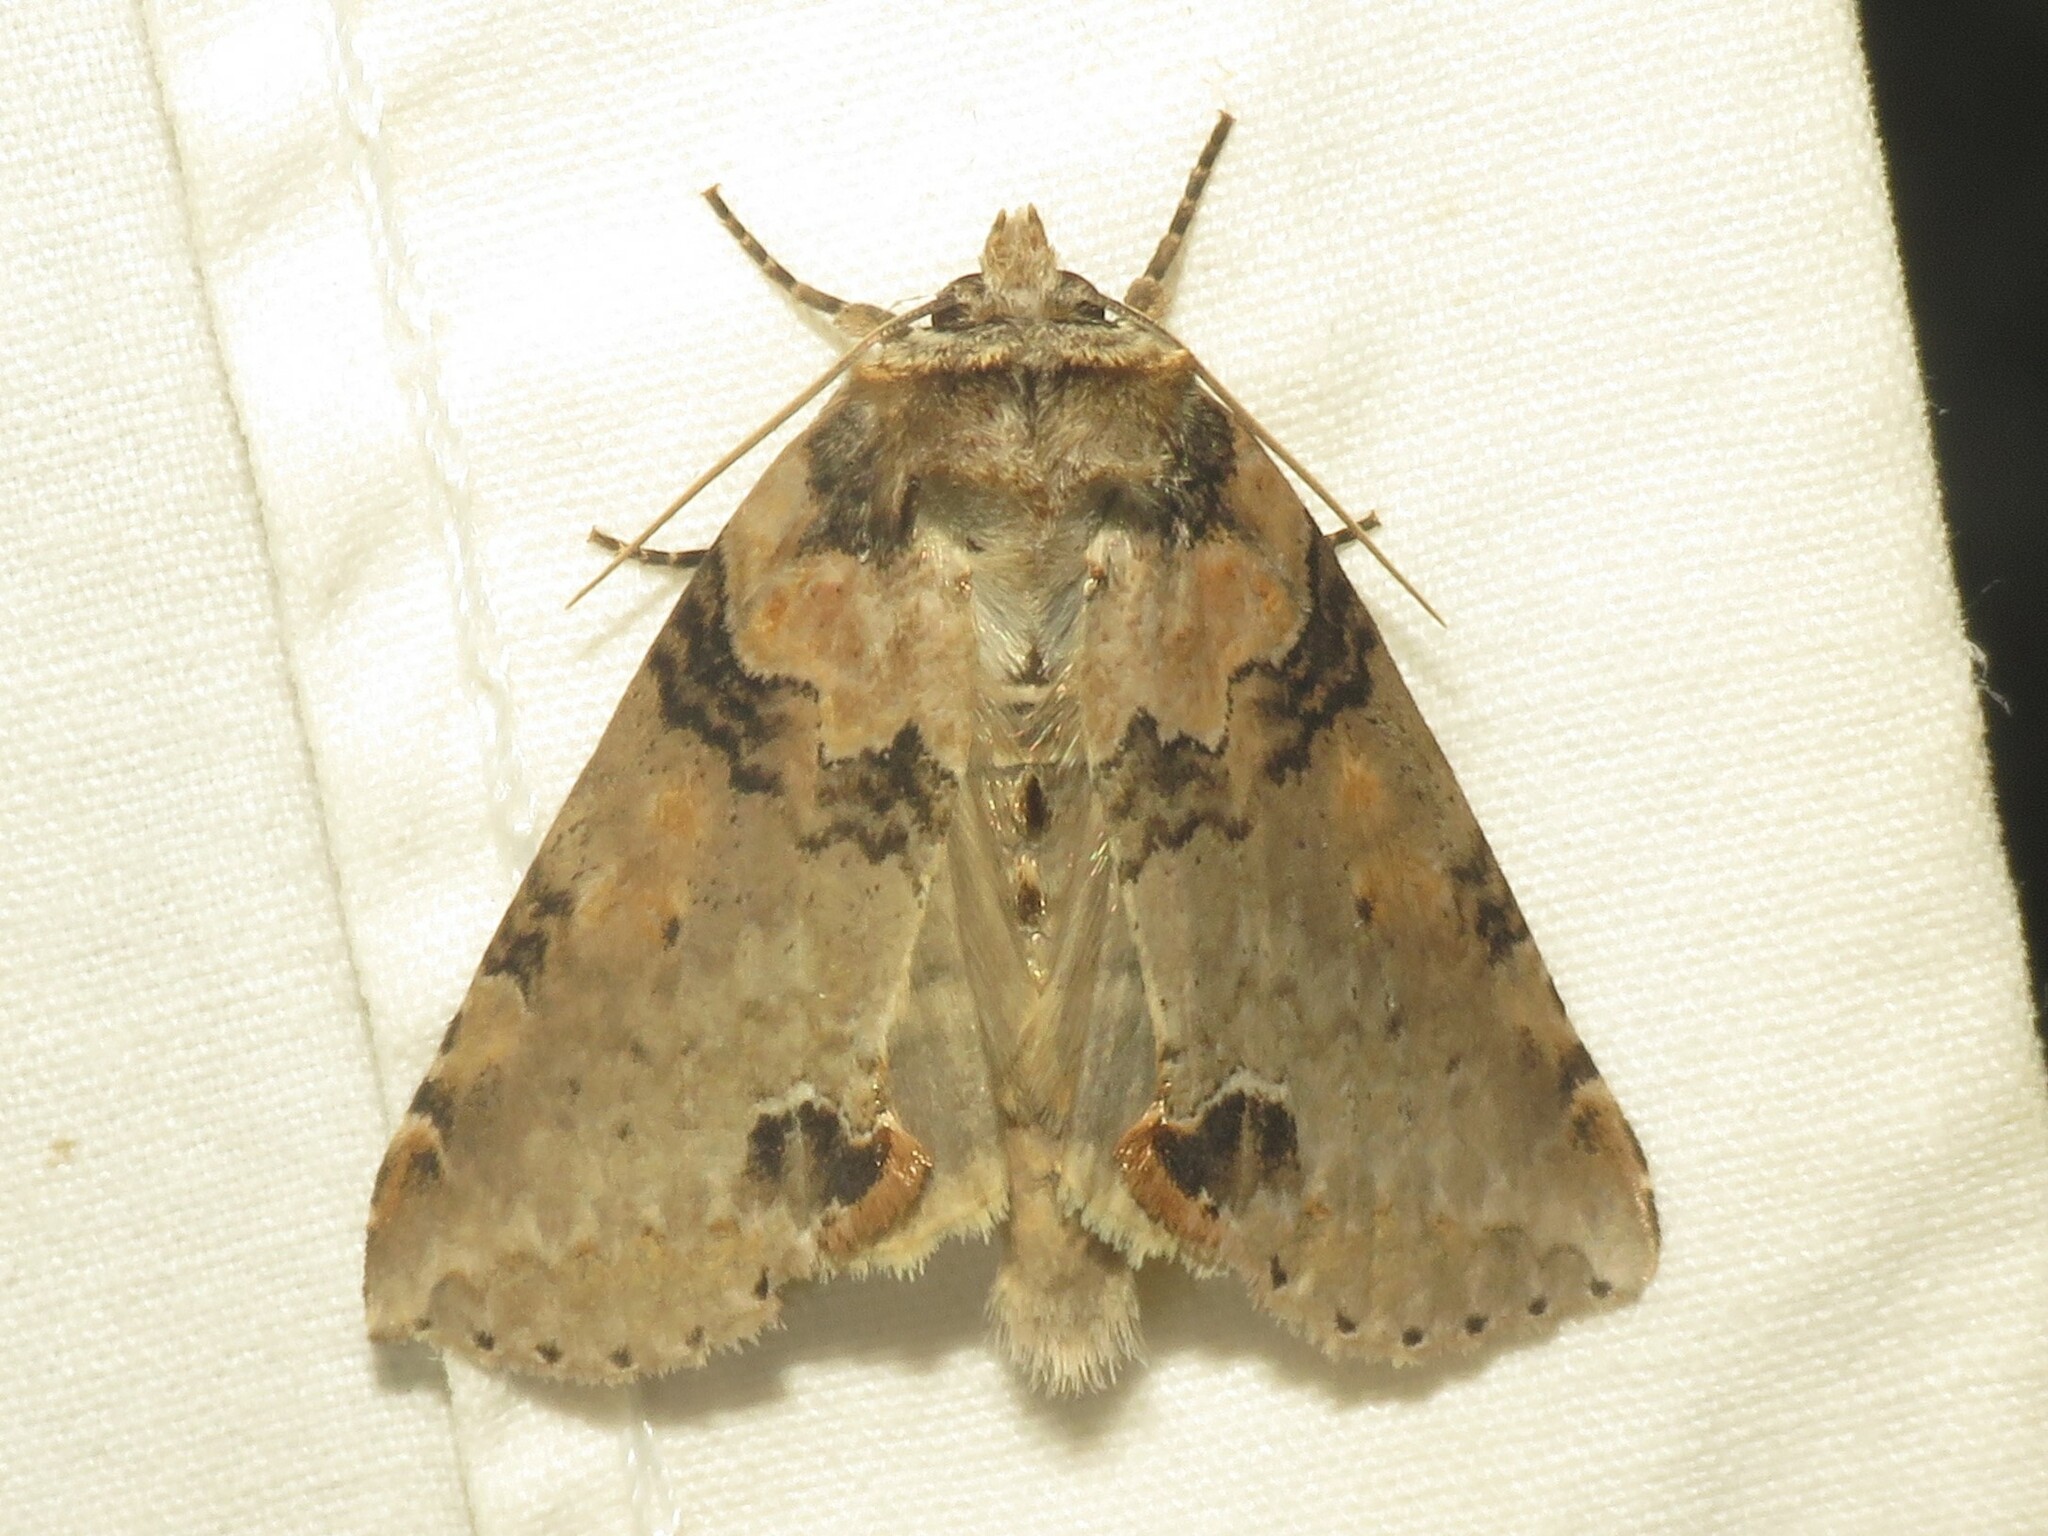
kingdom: Animalia
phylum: Arthropoda
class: Insecta
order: Lepidoptera
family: Drepanidae
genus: Pseudothyatira
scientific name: Pseudothyatira cymatophoroides
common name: Tufted thyatirid moth
